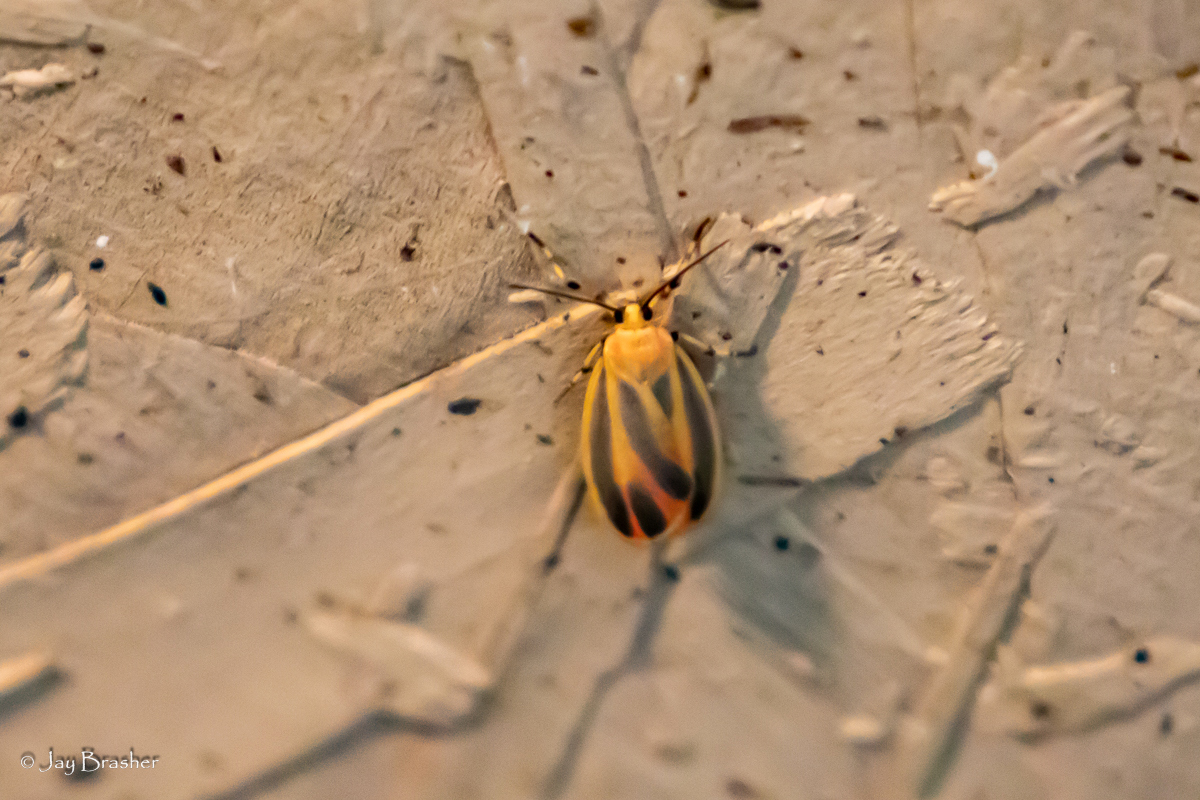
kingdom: Animalia
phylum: Arthropoda
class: Insecta
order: Lepidoptera
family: Erebidae
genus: Hypoprepia
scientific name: Hypoprepia fucosa
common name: Painted lichen moth
